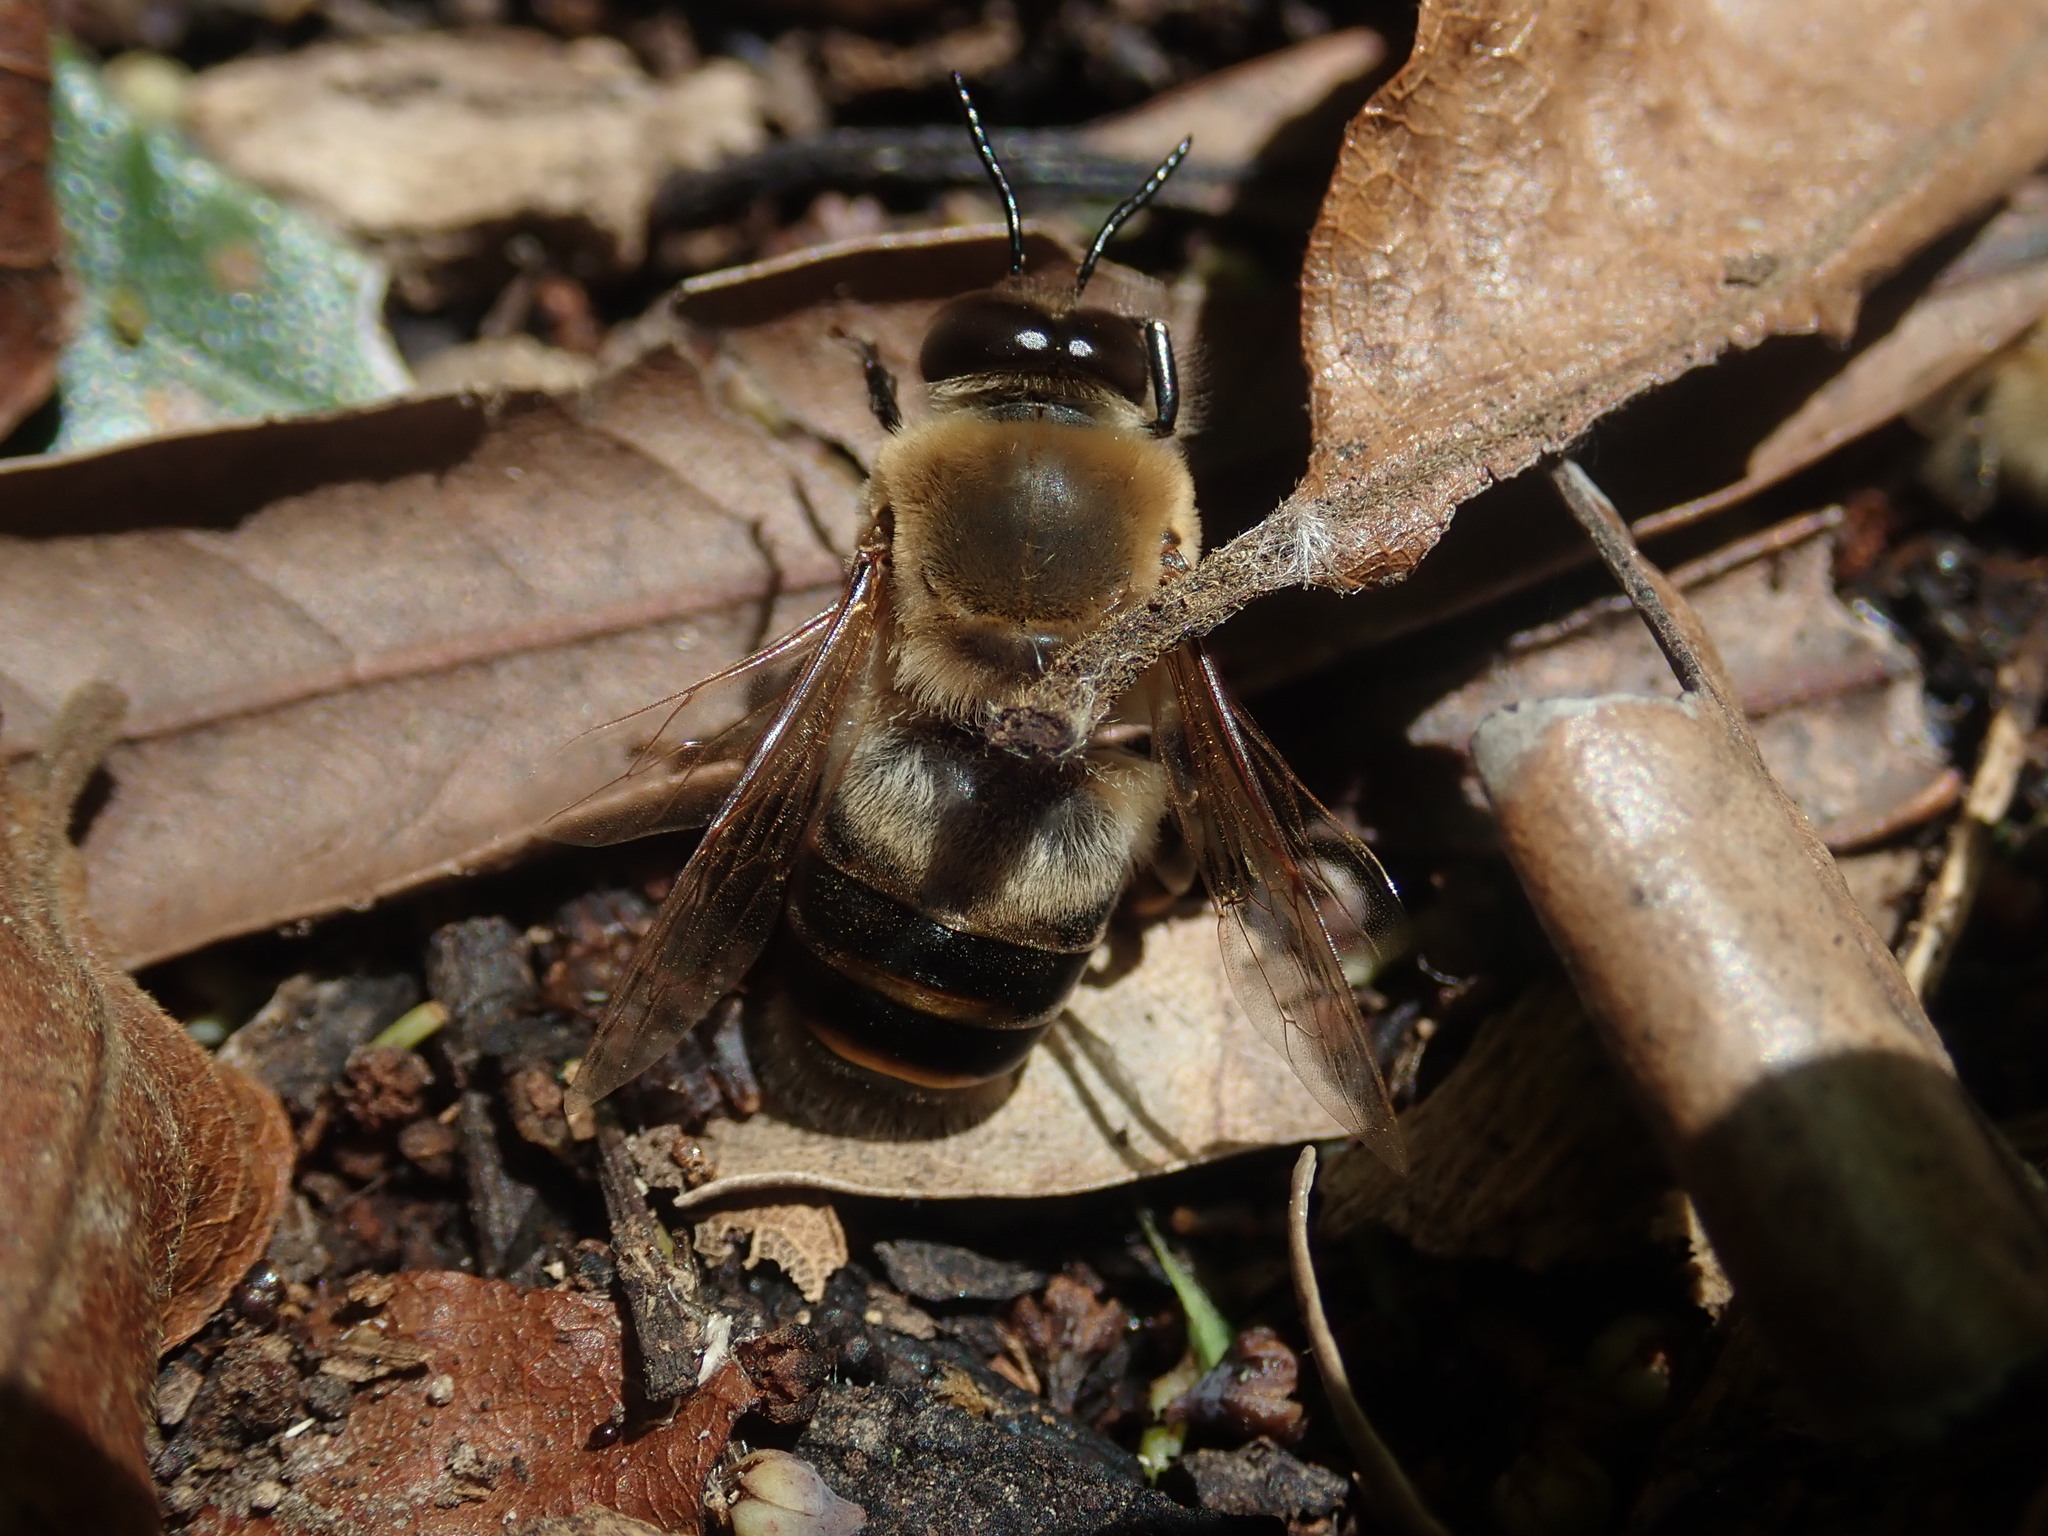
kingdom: Animalia
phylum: Arthropoda
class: Insecta
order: Hymenoptera
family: Apidae
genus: Apis
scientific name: Apis mellifera
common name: Honey bee
